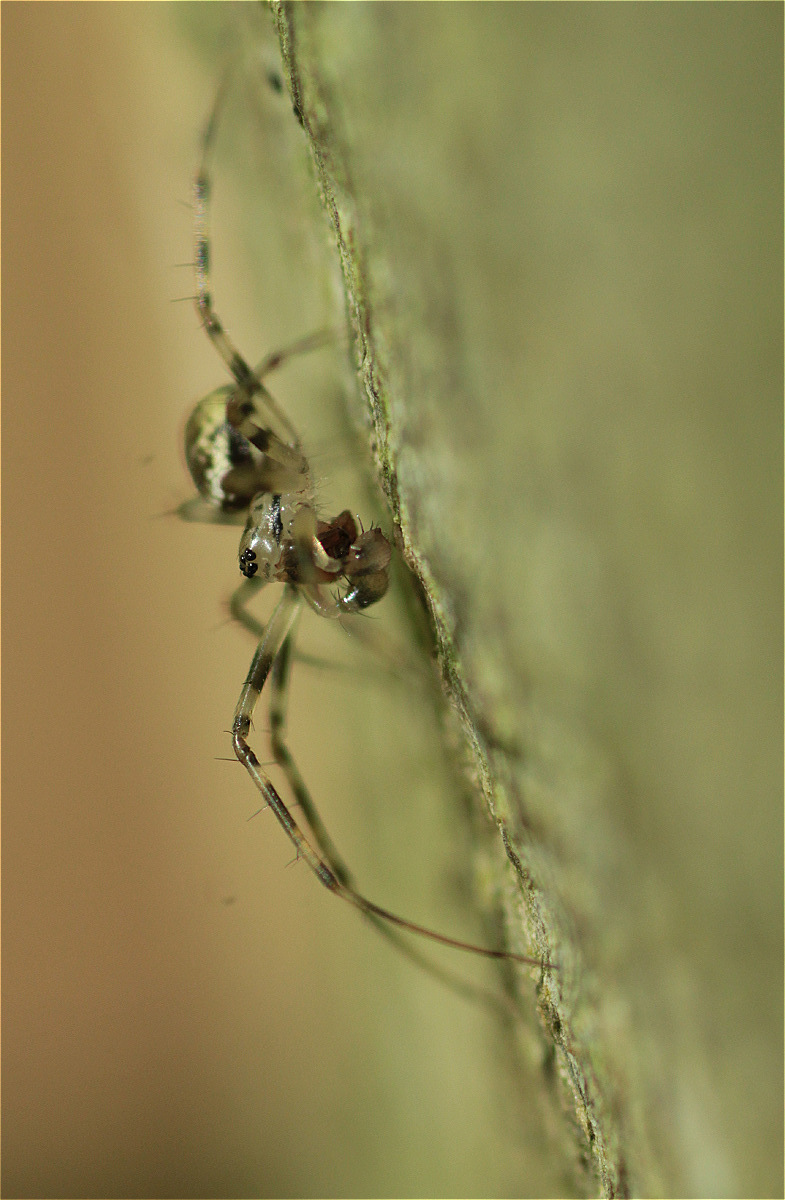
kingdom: Animalia
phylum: Arthropoda
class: Arachnida
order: Araneae
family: Linyphiidae
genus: Drapetisca
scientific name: Drapetisca socialis
